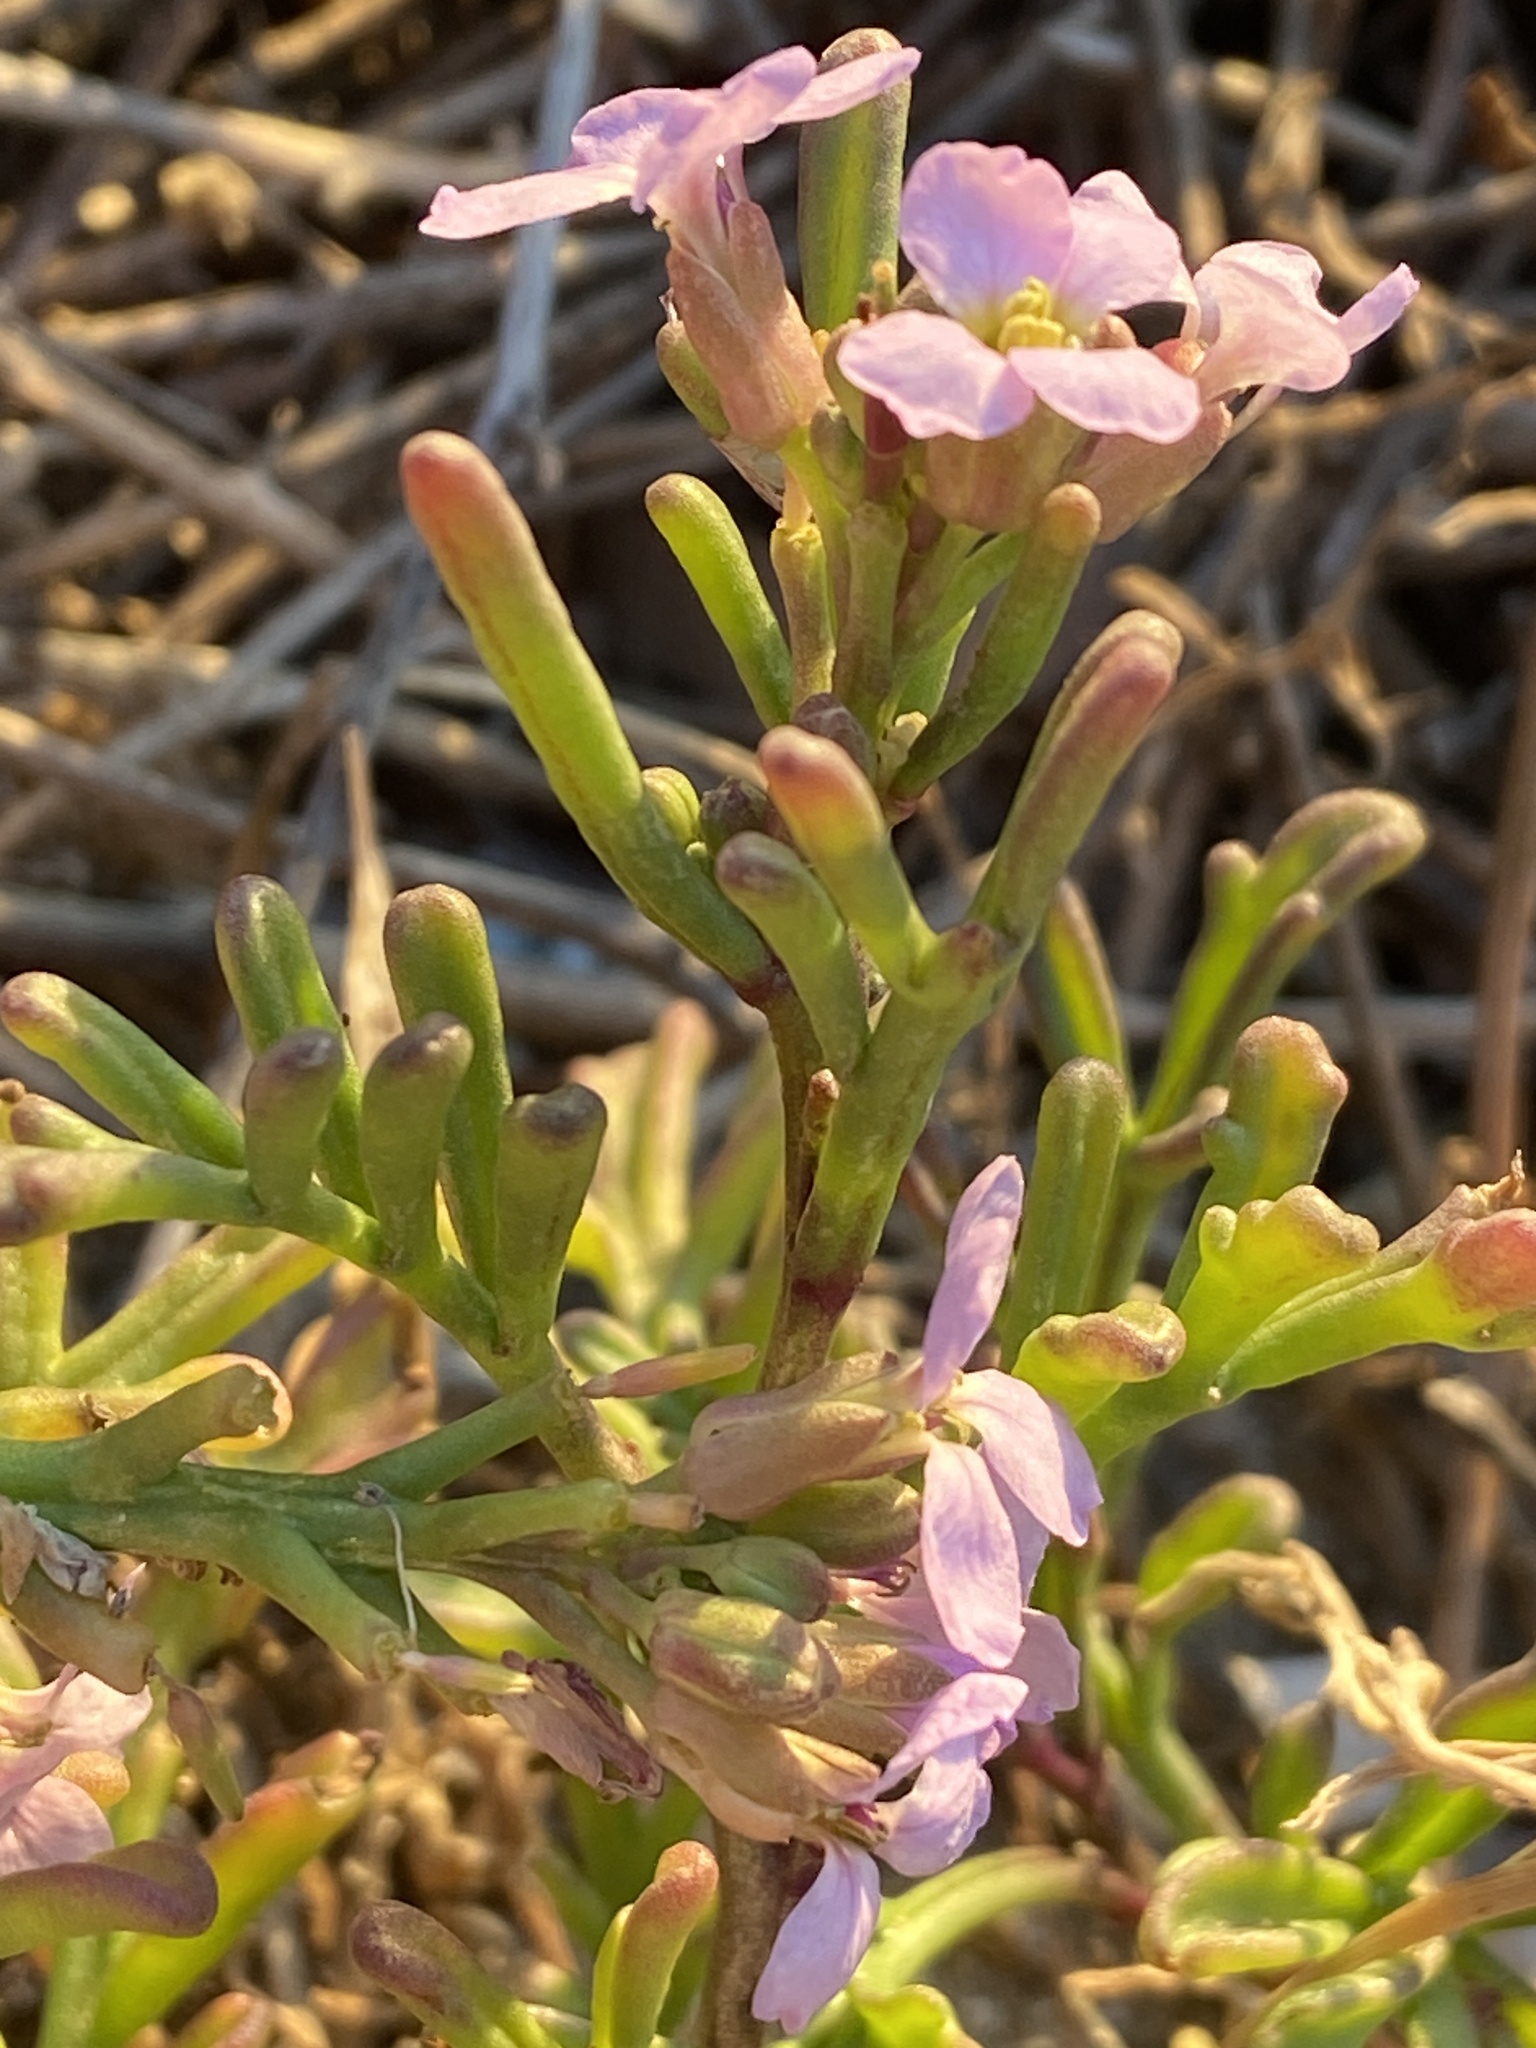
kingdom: Plantae
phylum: Tracheophyta
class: Magnoliopsida
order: Brassicales
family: Brassicaceae
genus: Cakile
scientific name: Cakile maritima
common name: Sea rocket
